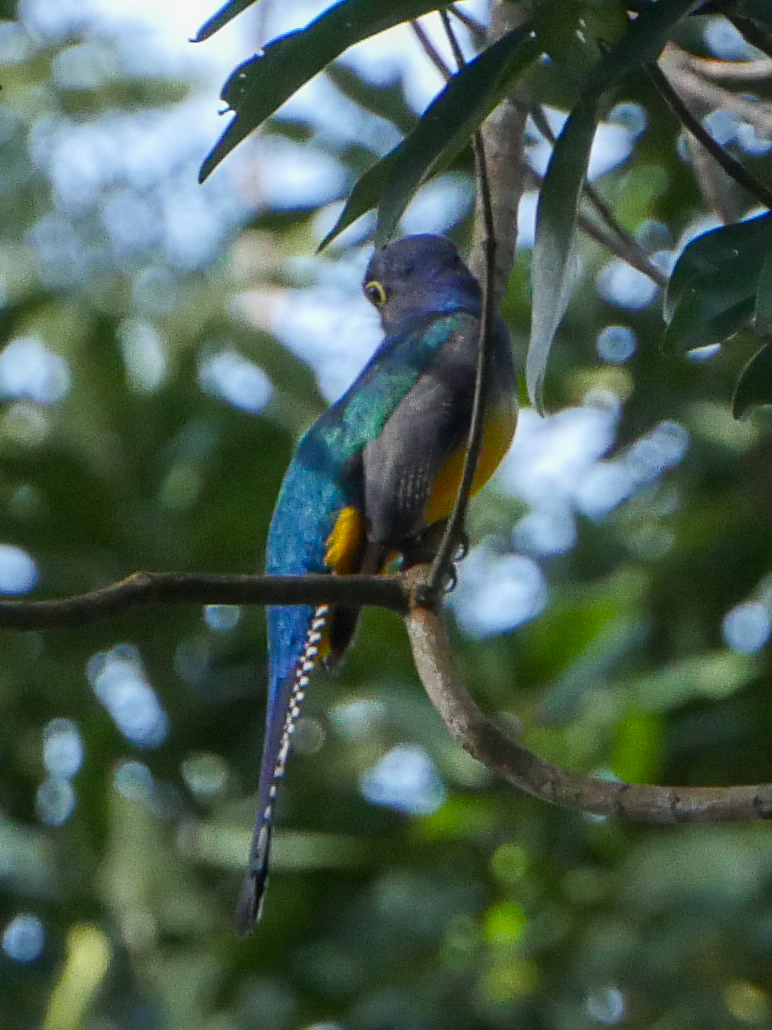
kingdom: Animalia
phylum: Chordata
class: Aves
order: Trogoniformes
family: Trogonidae
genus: Trogon
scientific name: Trogon caligatus
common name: Gartered trogon
